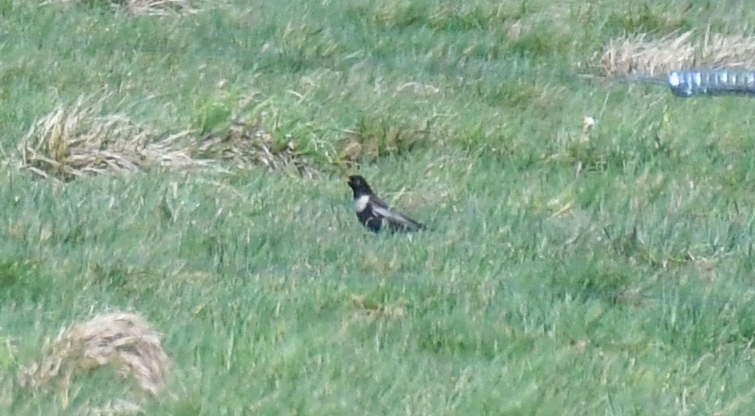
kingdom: Animalia
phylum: Chordata
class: Aves
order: Passeriformes
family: Turdidae
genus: Turdus
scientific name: Turdus torquatus
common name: Ring ouzel
